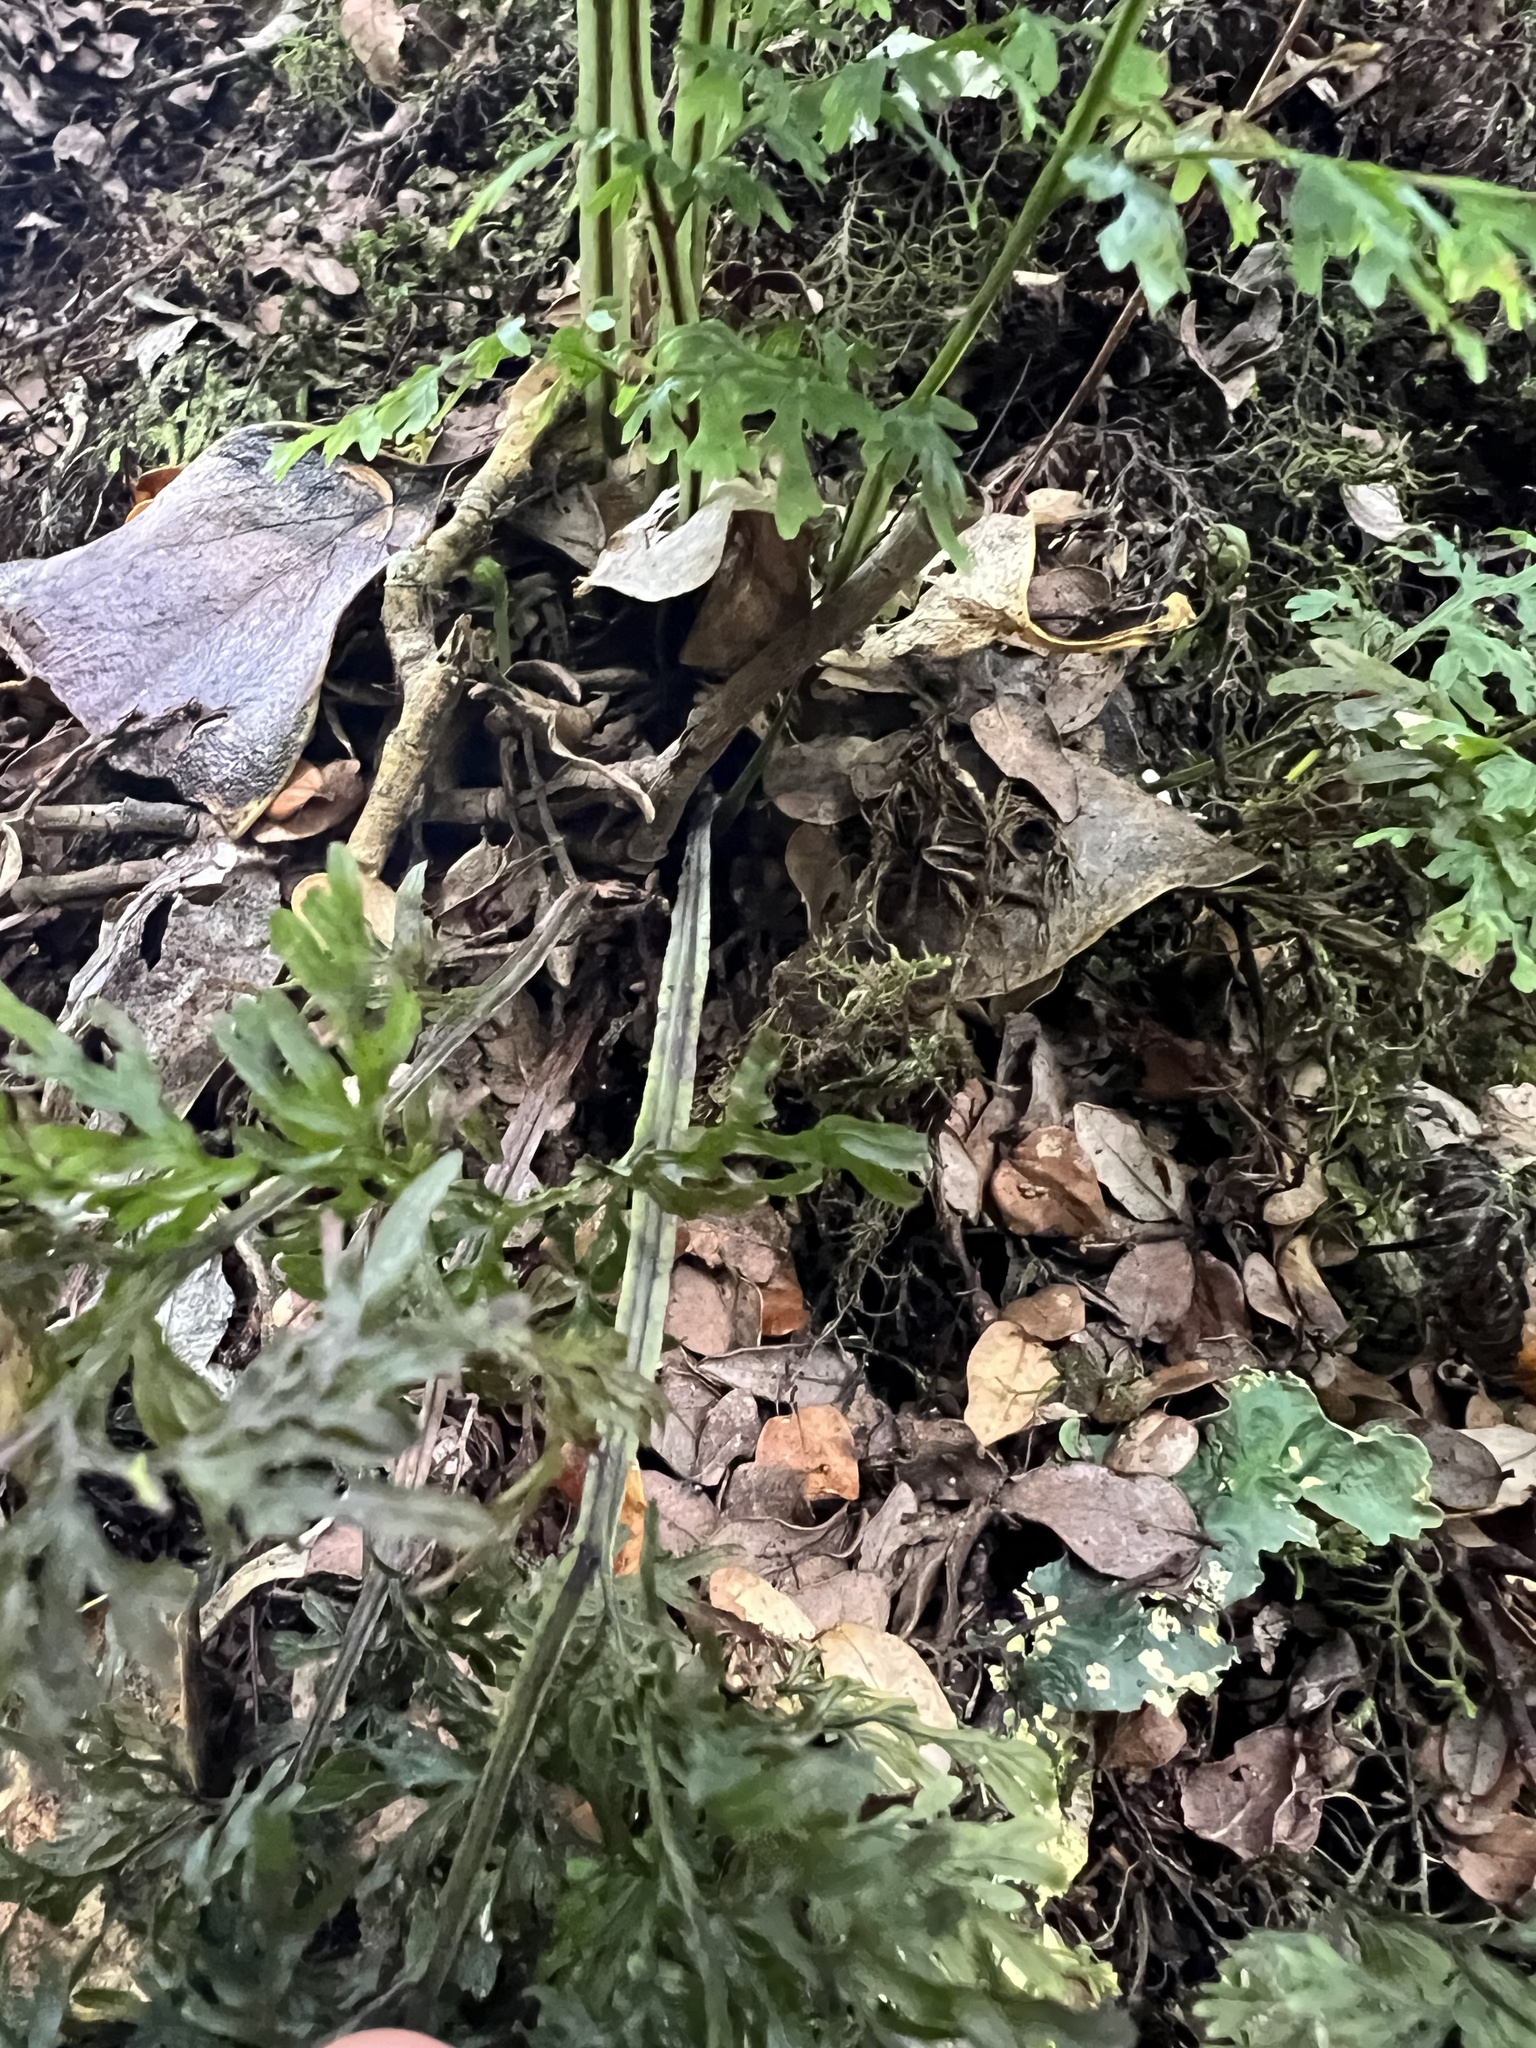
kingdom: Plantae
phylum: Tracheophyta
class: Polypodiopsida
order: Hymenophyllales
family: Hymenophyllaceae
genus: Hymenophyllum
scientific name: Hymenophyllum pulcherrimum
